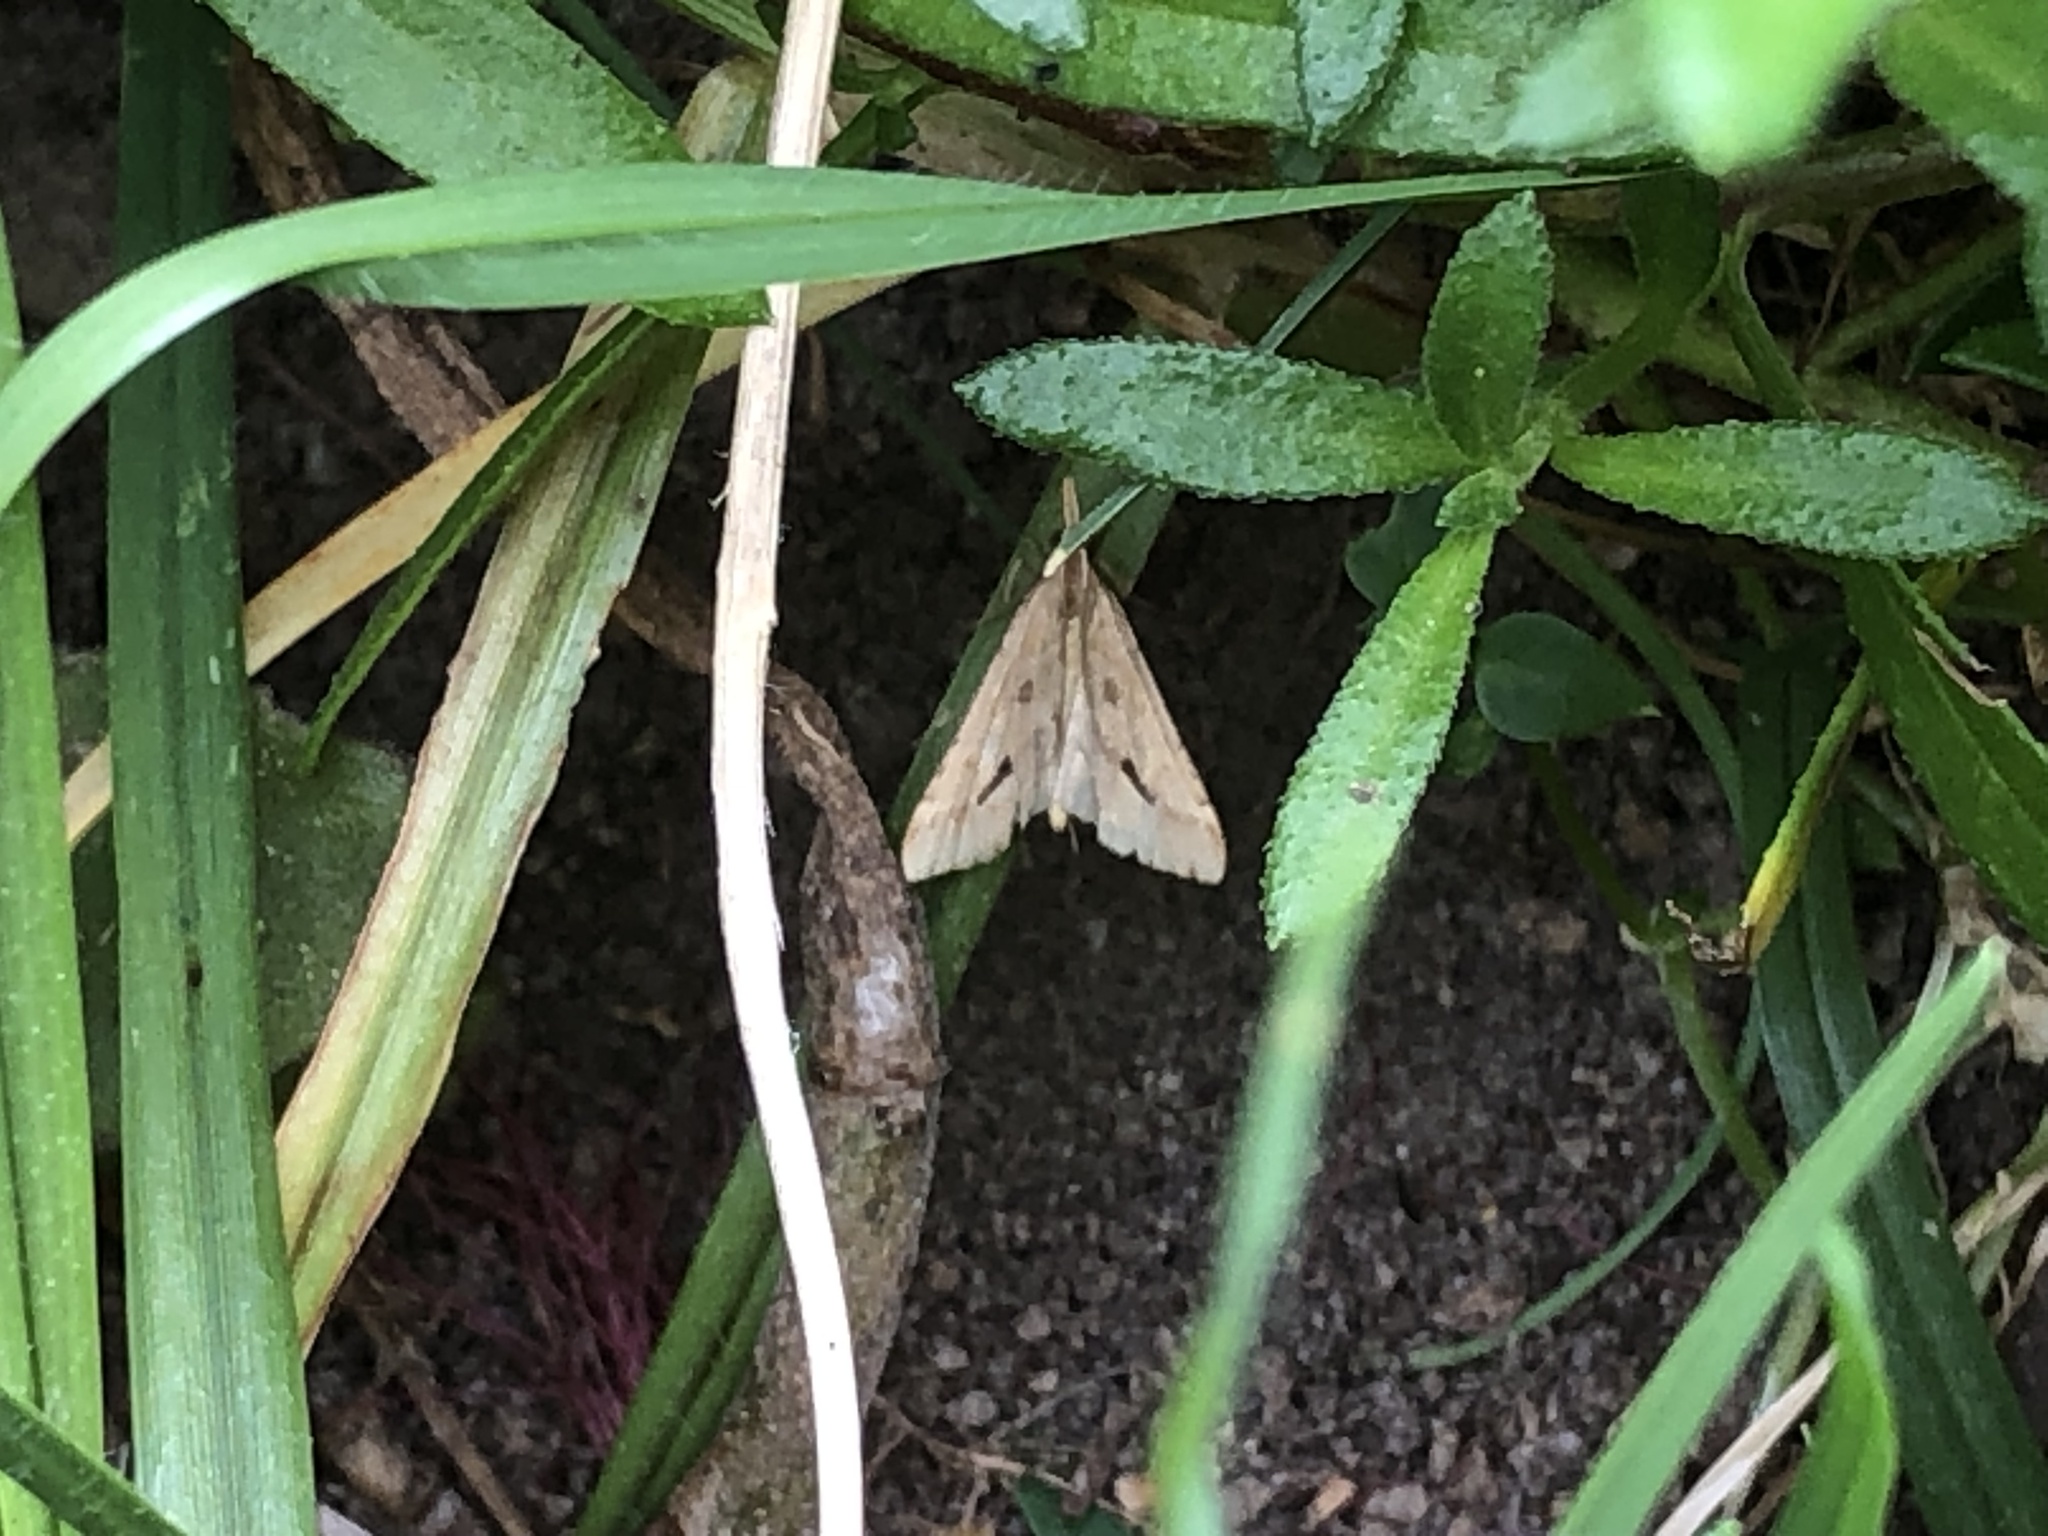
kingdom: Animalia
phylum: Arthropoda
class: Insecta
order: Lepidoptera
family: Crambidae
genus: Diasemia
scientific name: Diasemia monostigma
